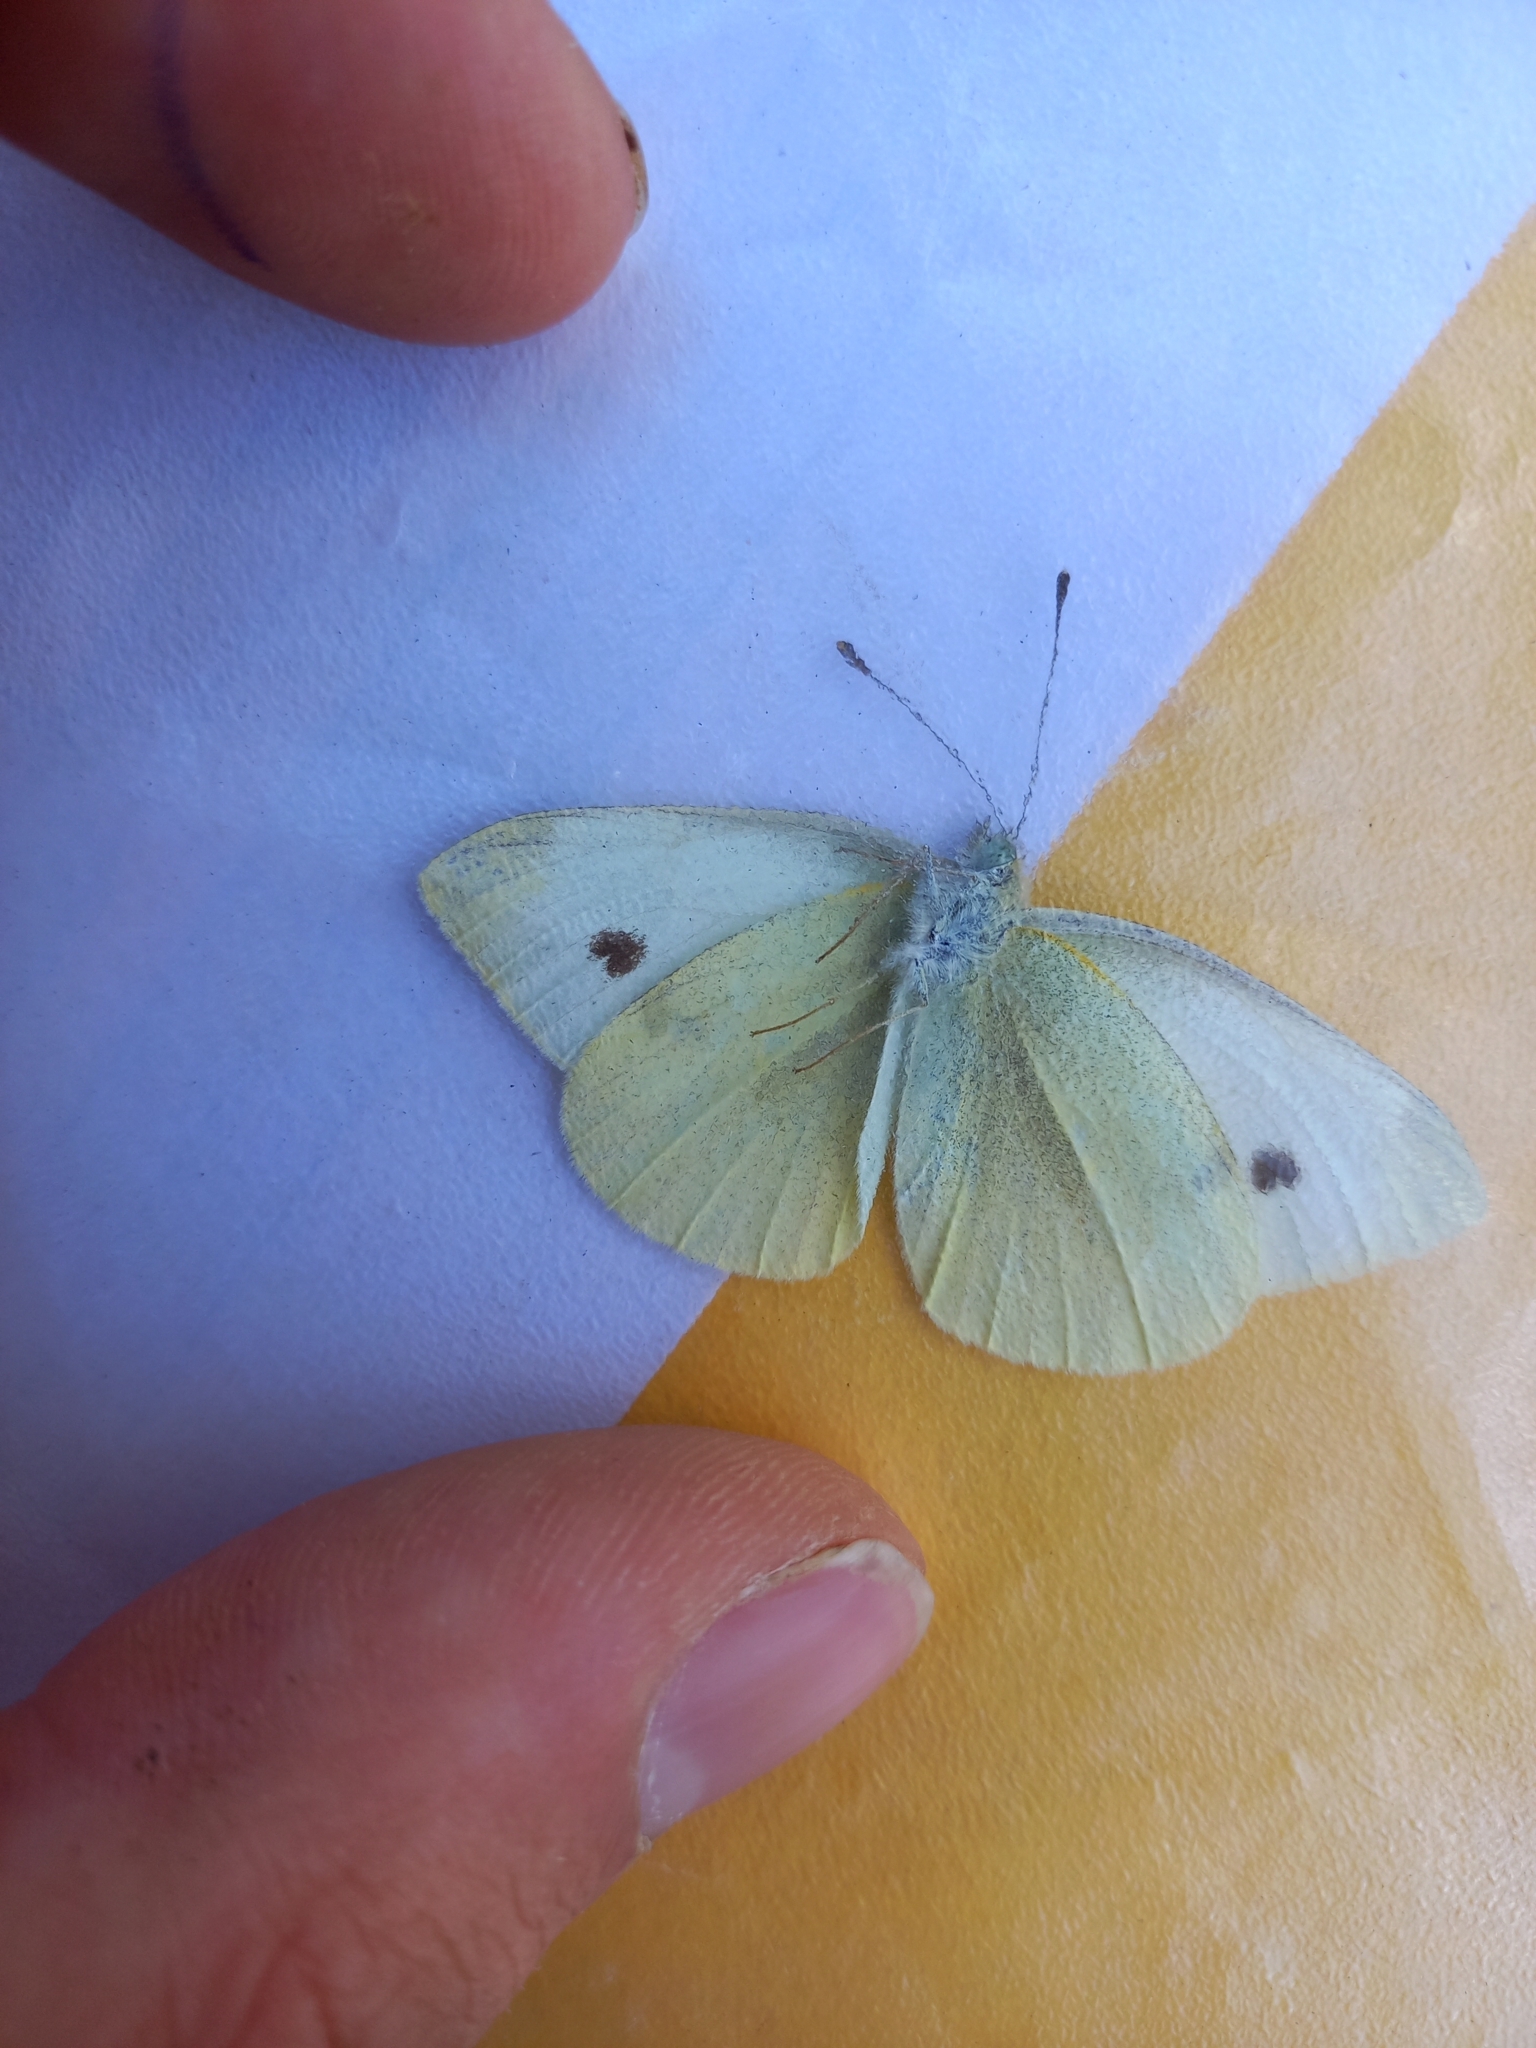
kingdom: Animalia
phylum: Arthropoda
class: Insecta
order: Lepidoptera
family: Pieridae
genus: Pieris
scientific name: Pieris rapae
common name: Small white
